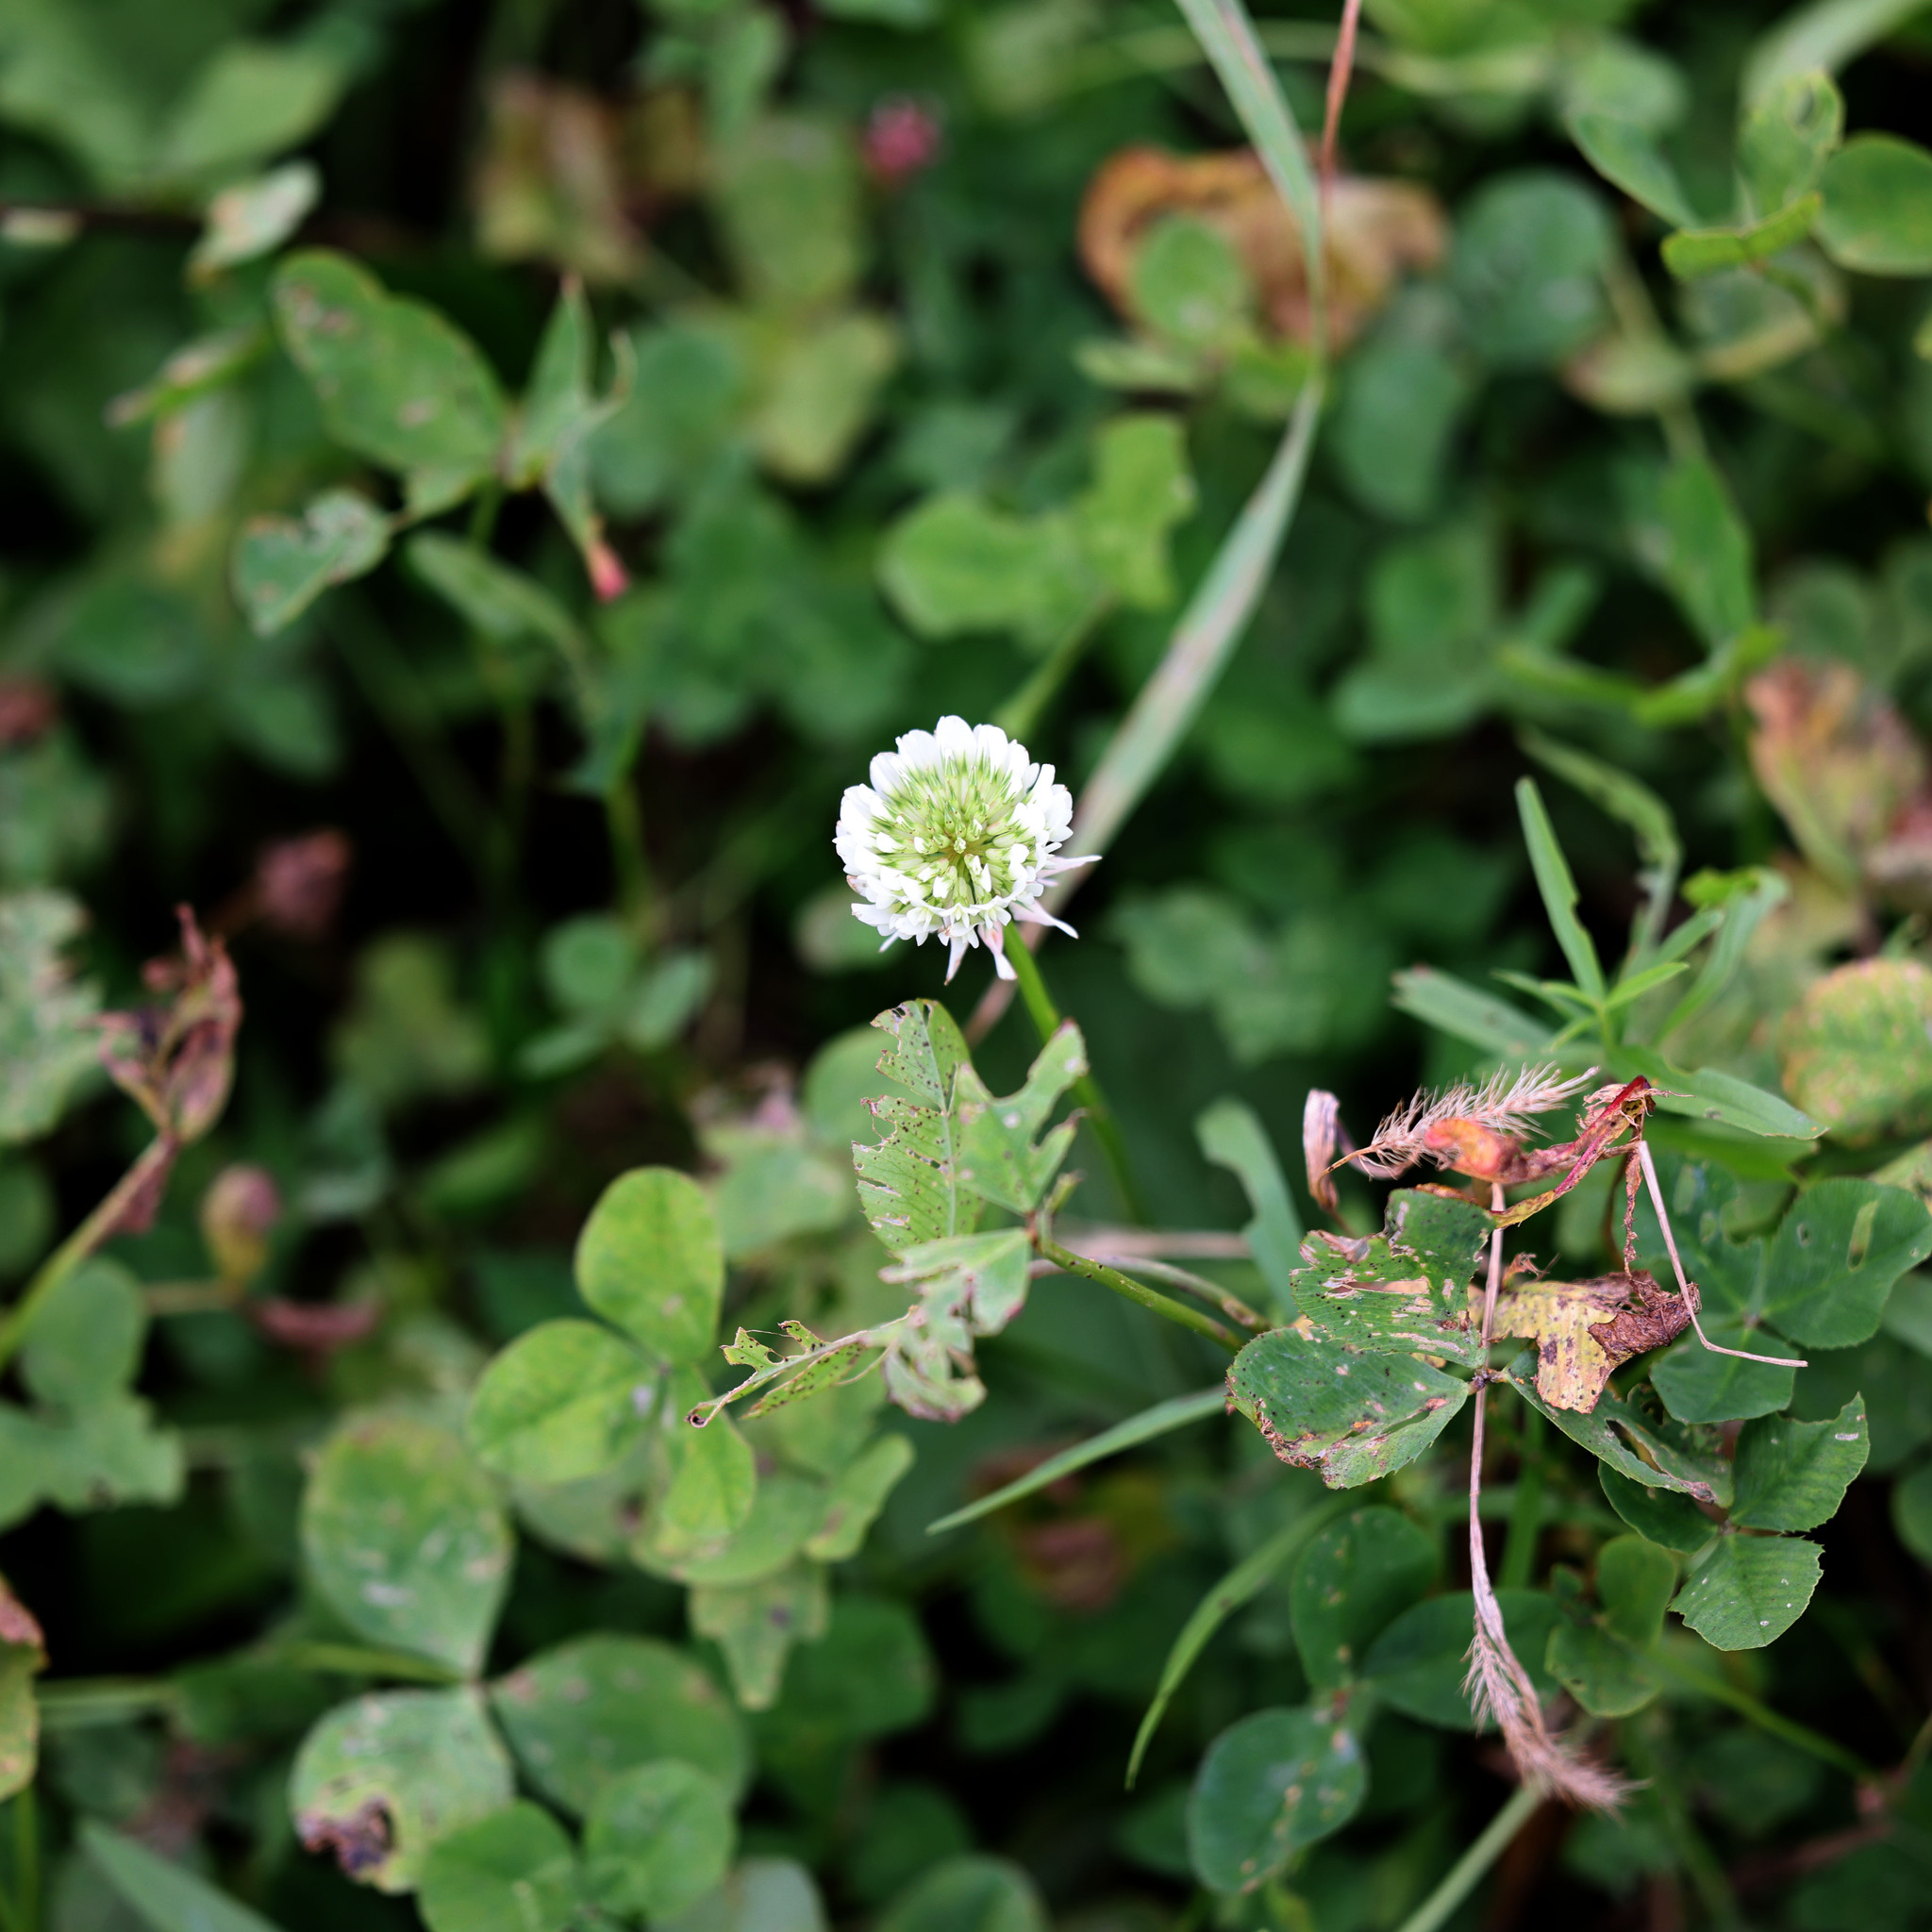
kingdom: Plantae
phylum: Tracheophyta
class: Magnoliopsida
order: Fabales
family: Fabaceae
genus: Trifolium
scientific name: Trifolium repens
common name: White clover
